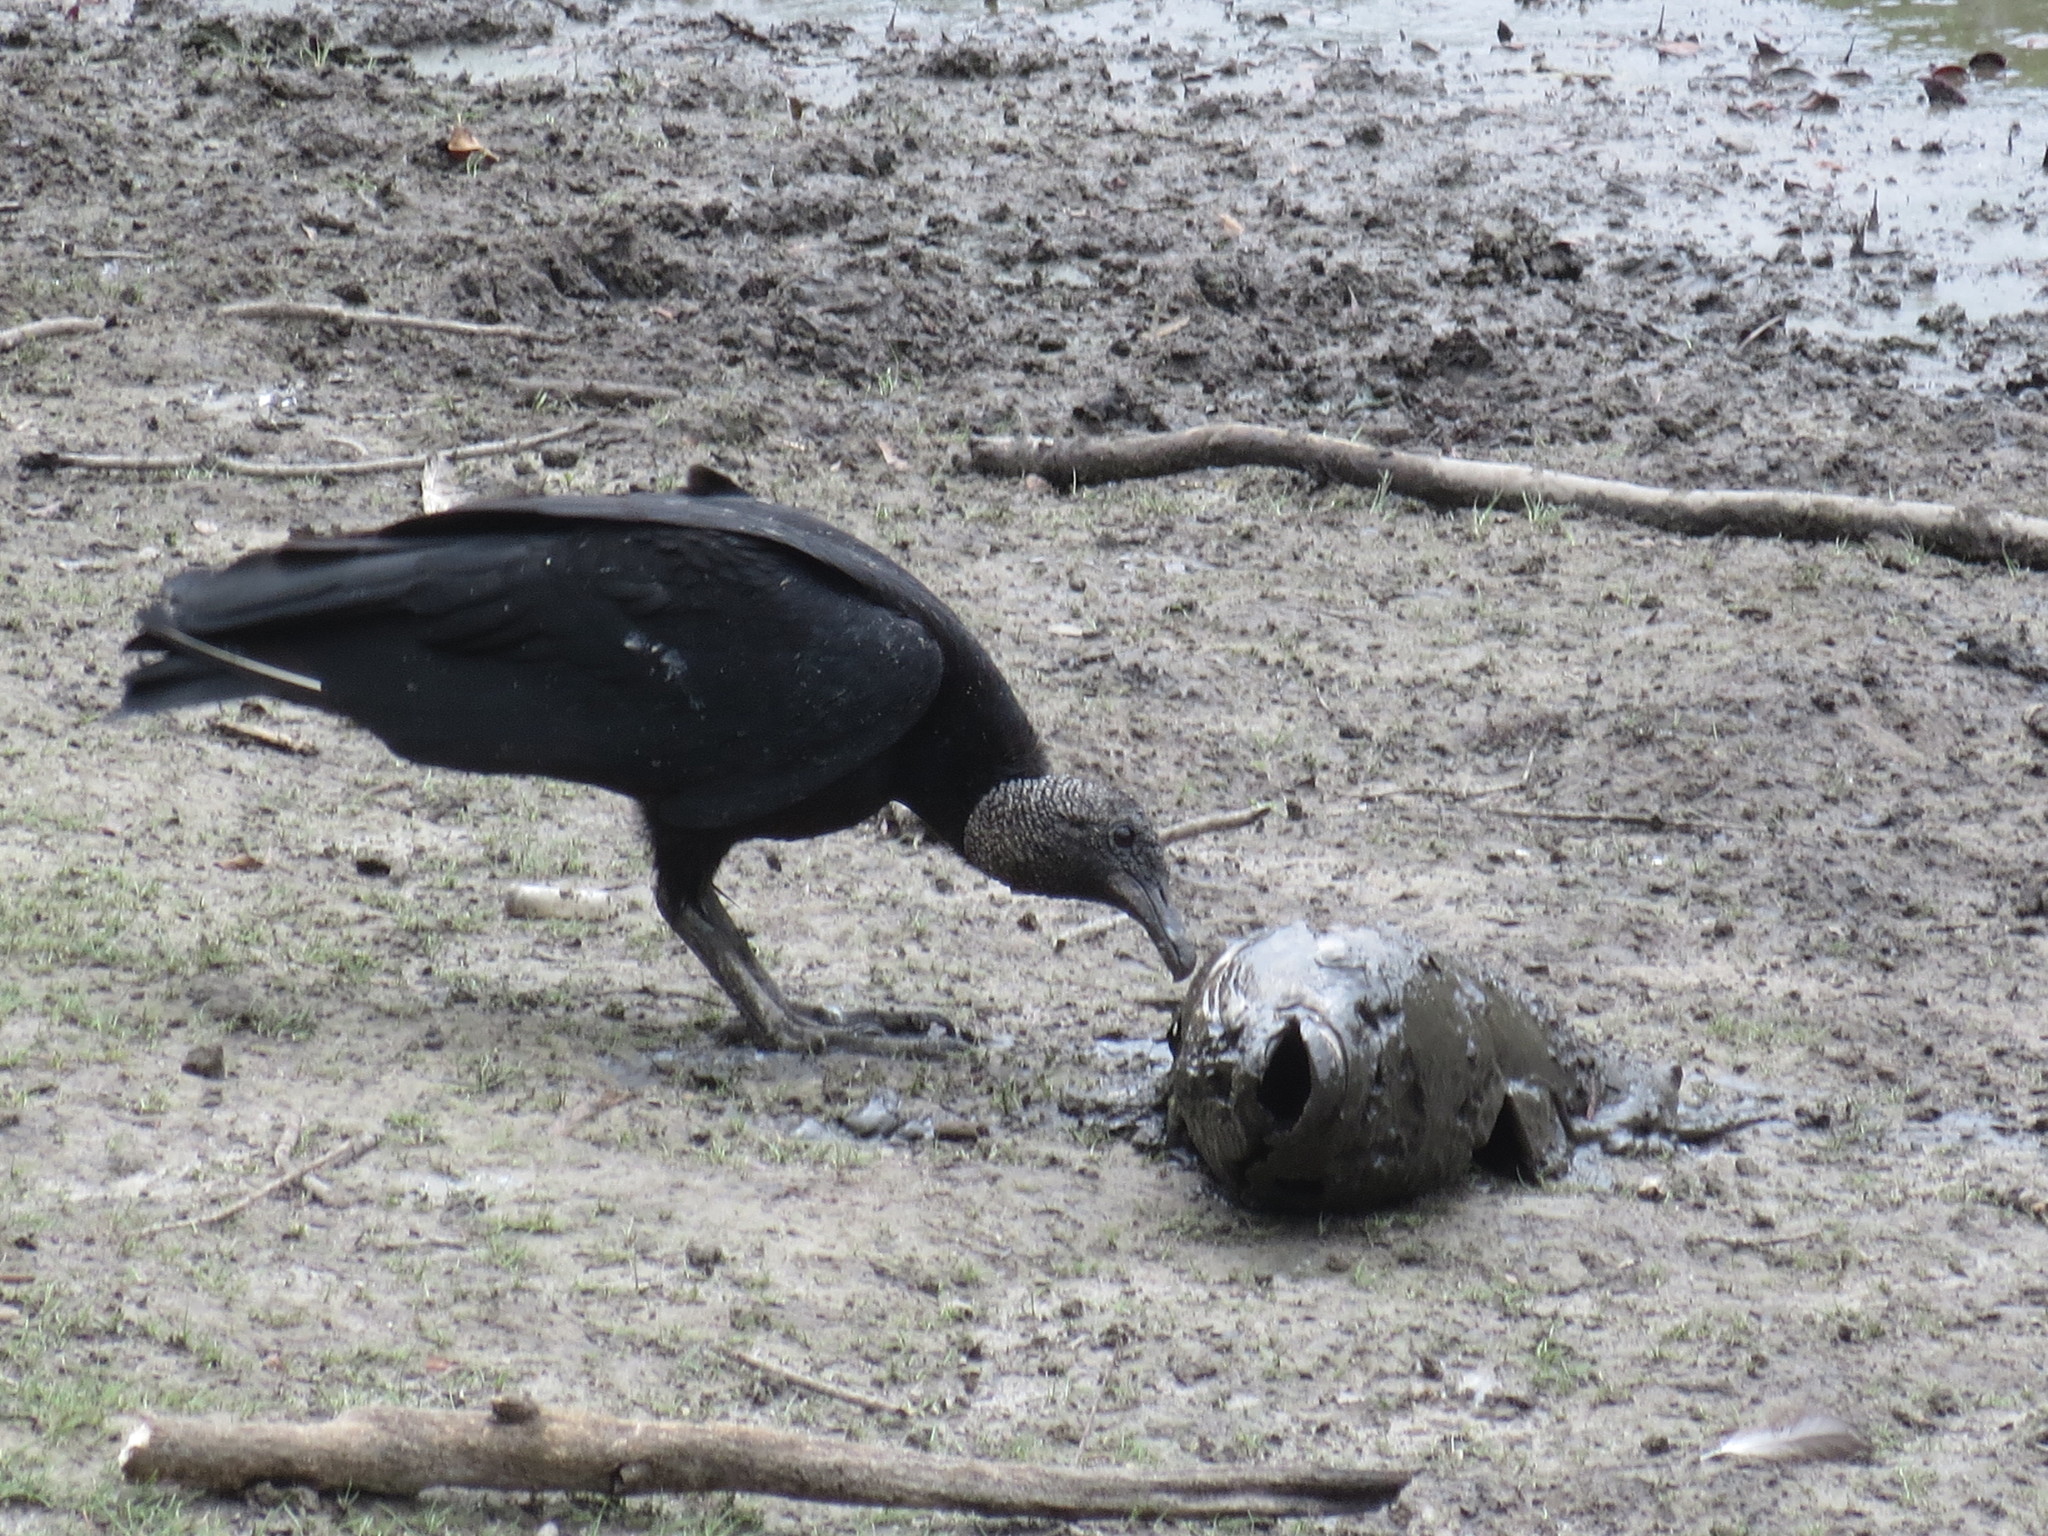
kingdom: Animalia
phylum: Chordata
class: Aves
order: Accipitriformes
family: Cathartidae
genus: Coragyps
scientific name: Coragyps atratus
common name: Black vulture
